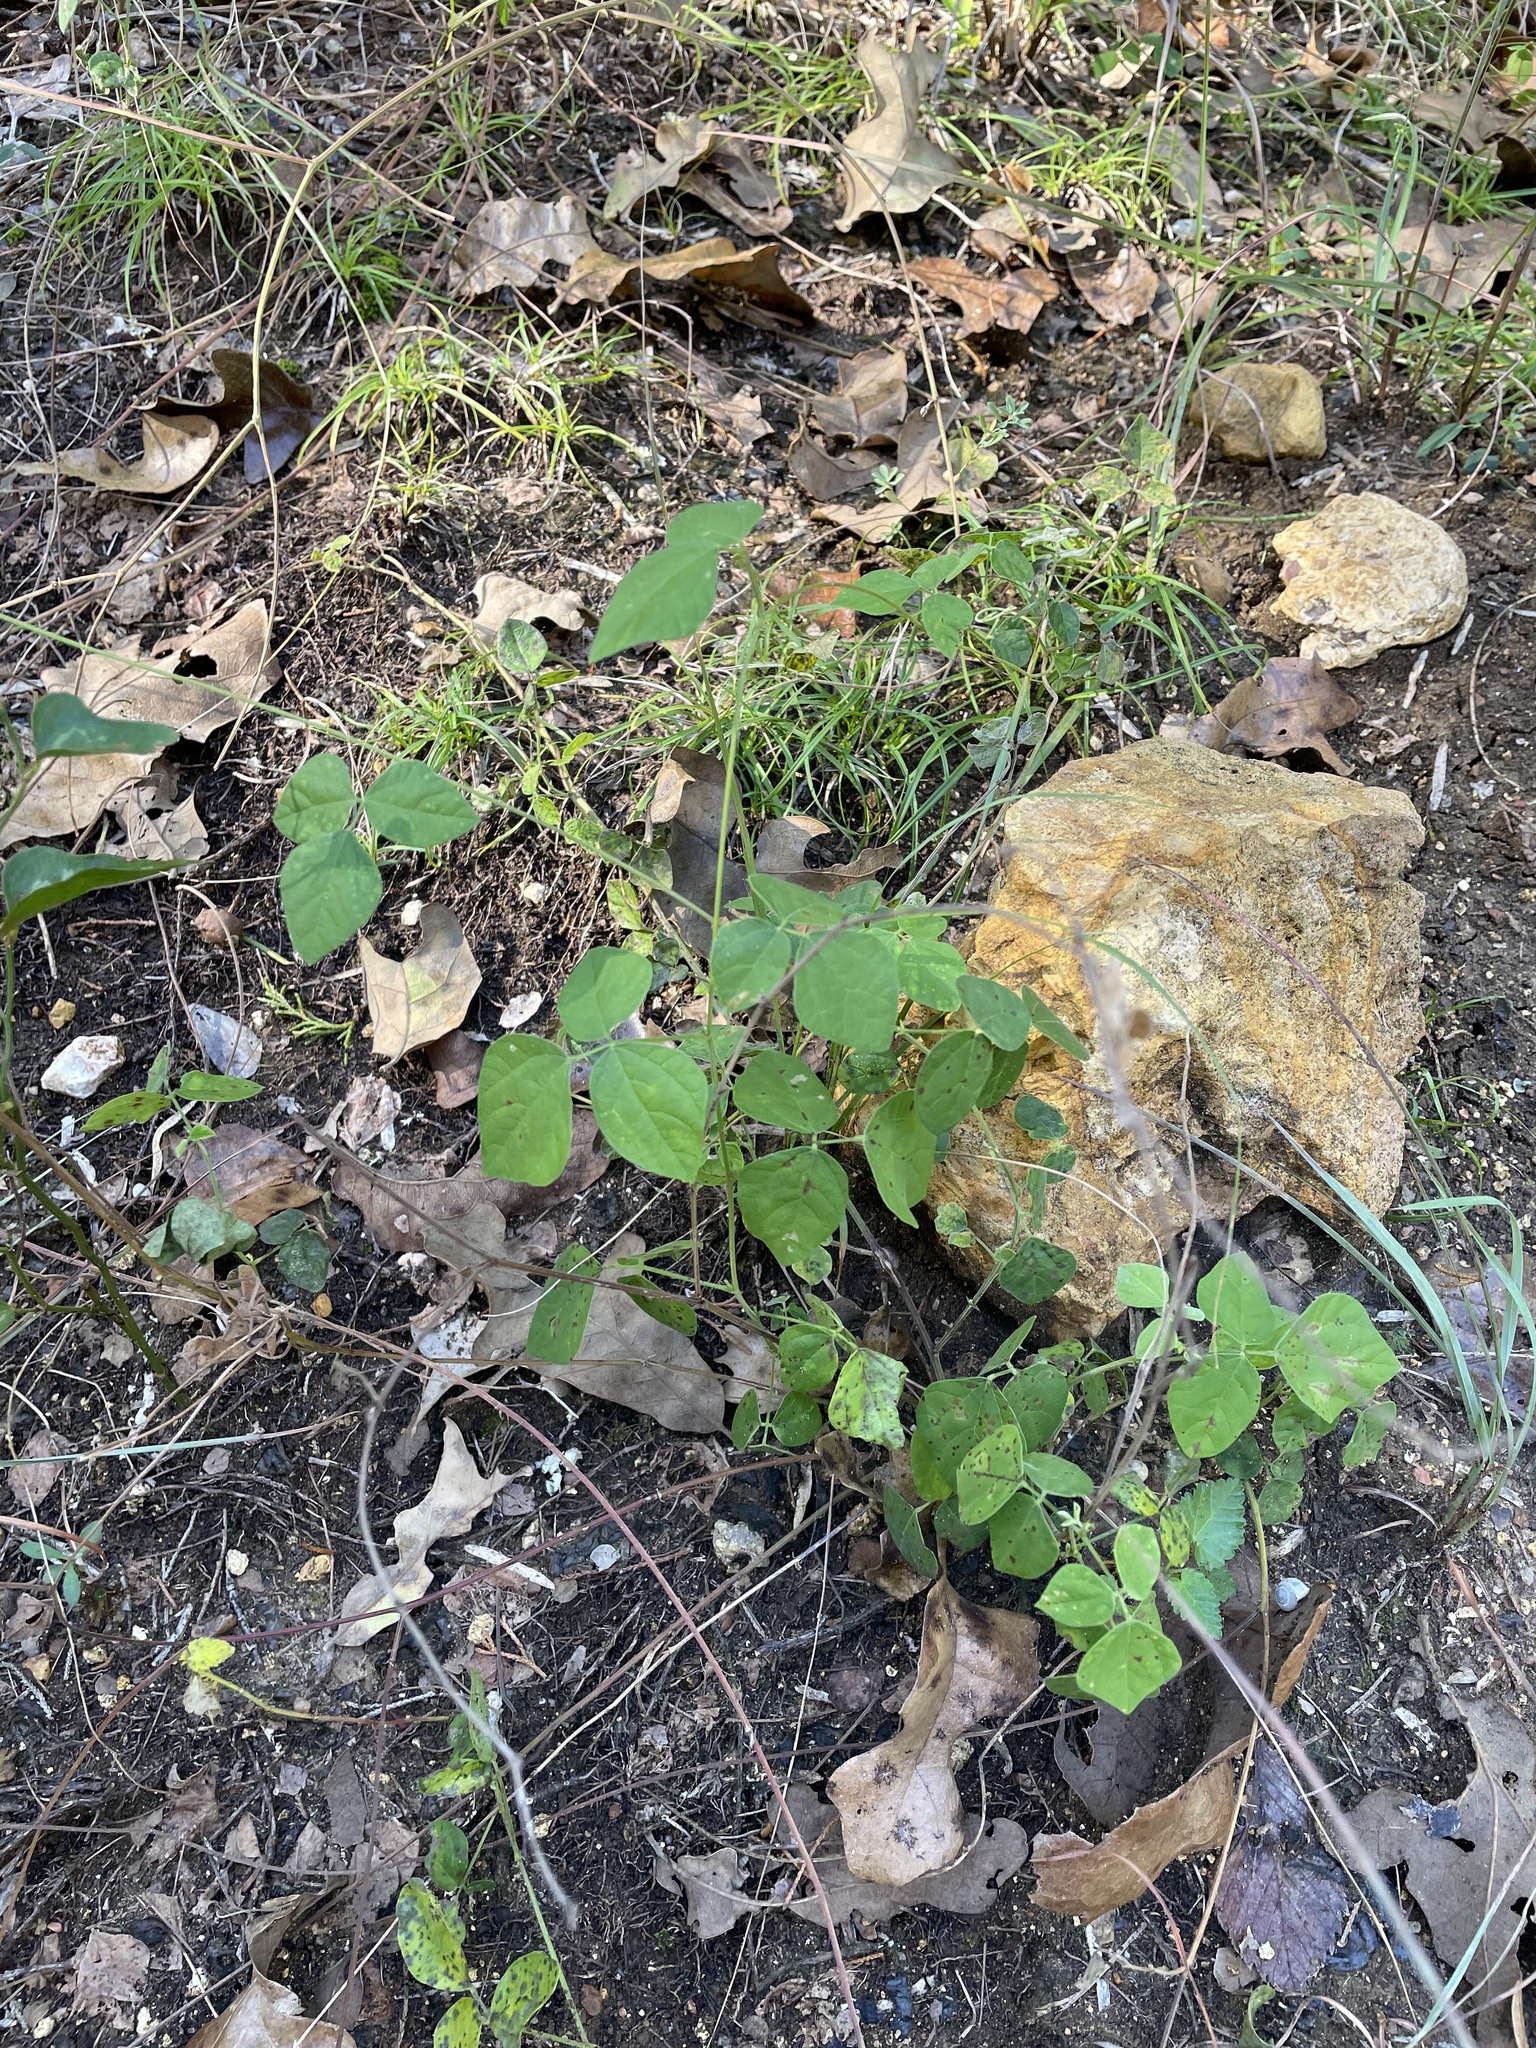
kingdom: Plantae
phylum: Tracheophyta
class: Magnoliopsida
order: Fabales
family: Fabaceae
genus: Rhynchosia
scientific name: Rhynchosia minima
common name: Least snoutbean
